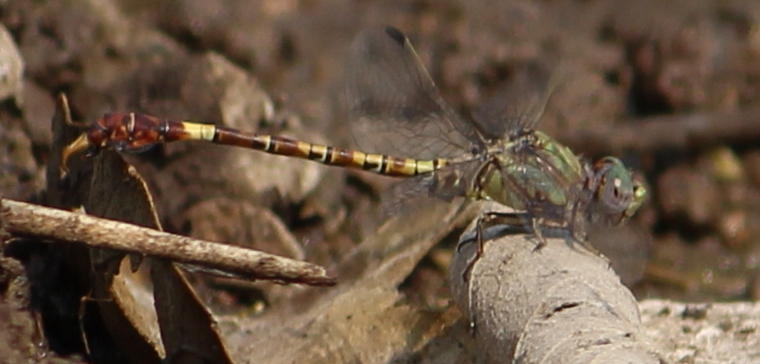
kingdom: Animalia
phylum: Arthropoda
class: Insecta
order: Odonata
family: Gomphidae
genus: Paragomphus
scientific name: Paragomphus elpidius
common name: Corkscrew hooktail
